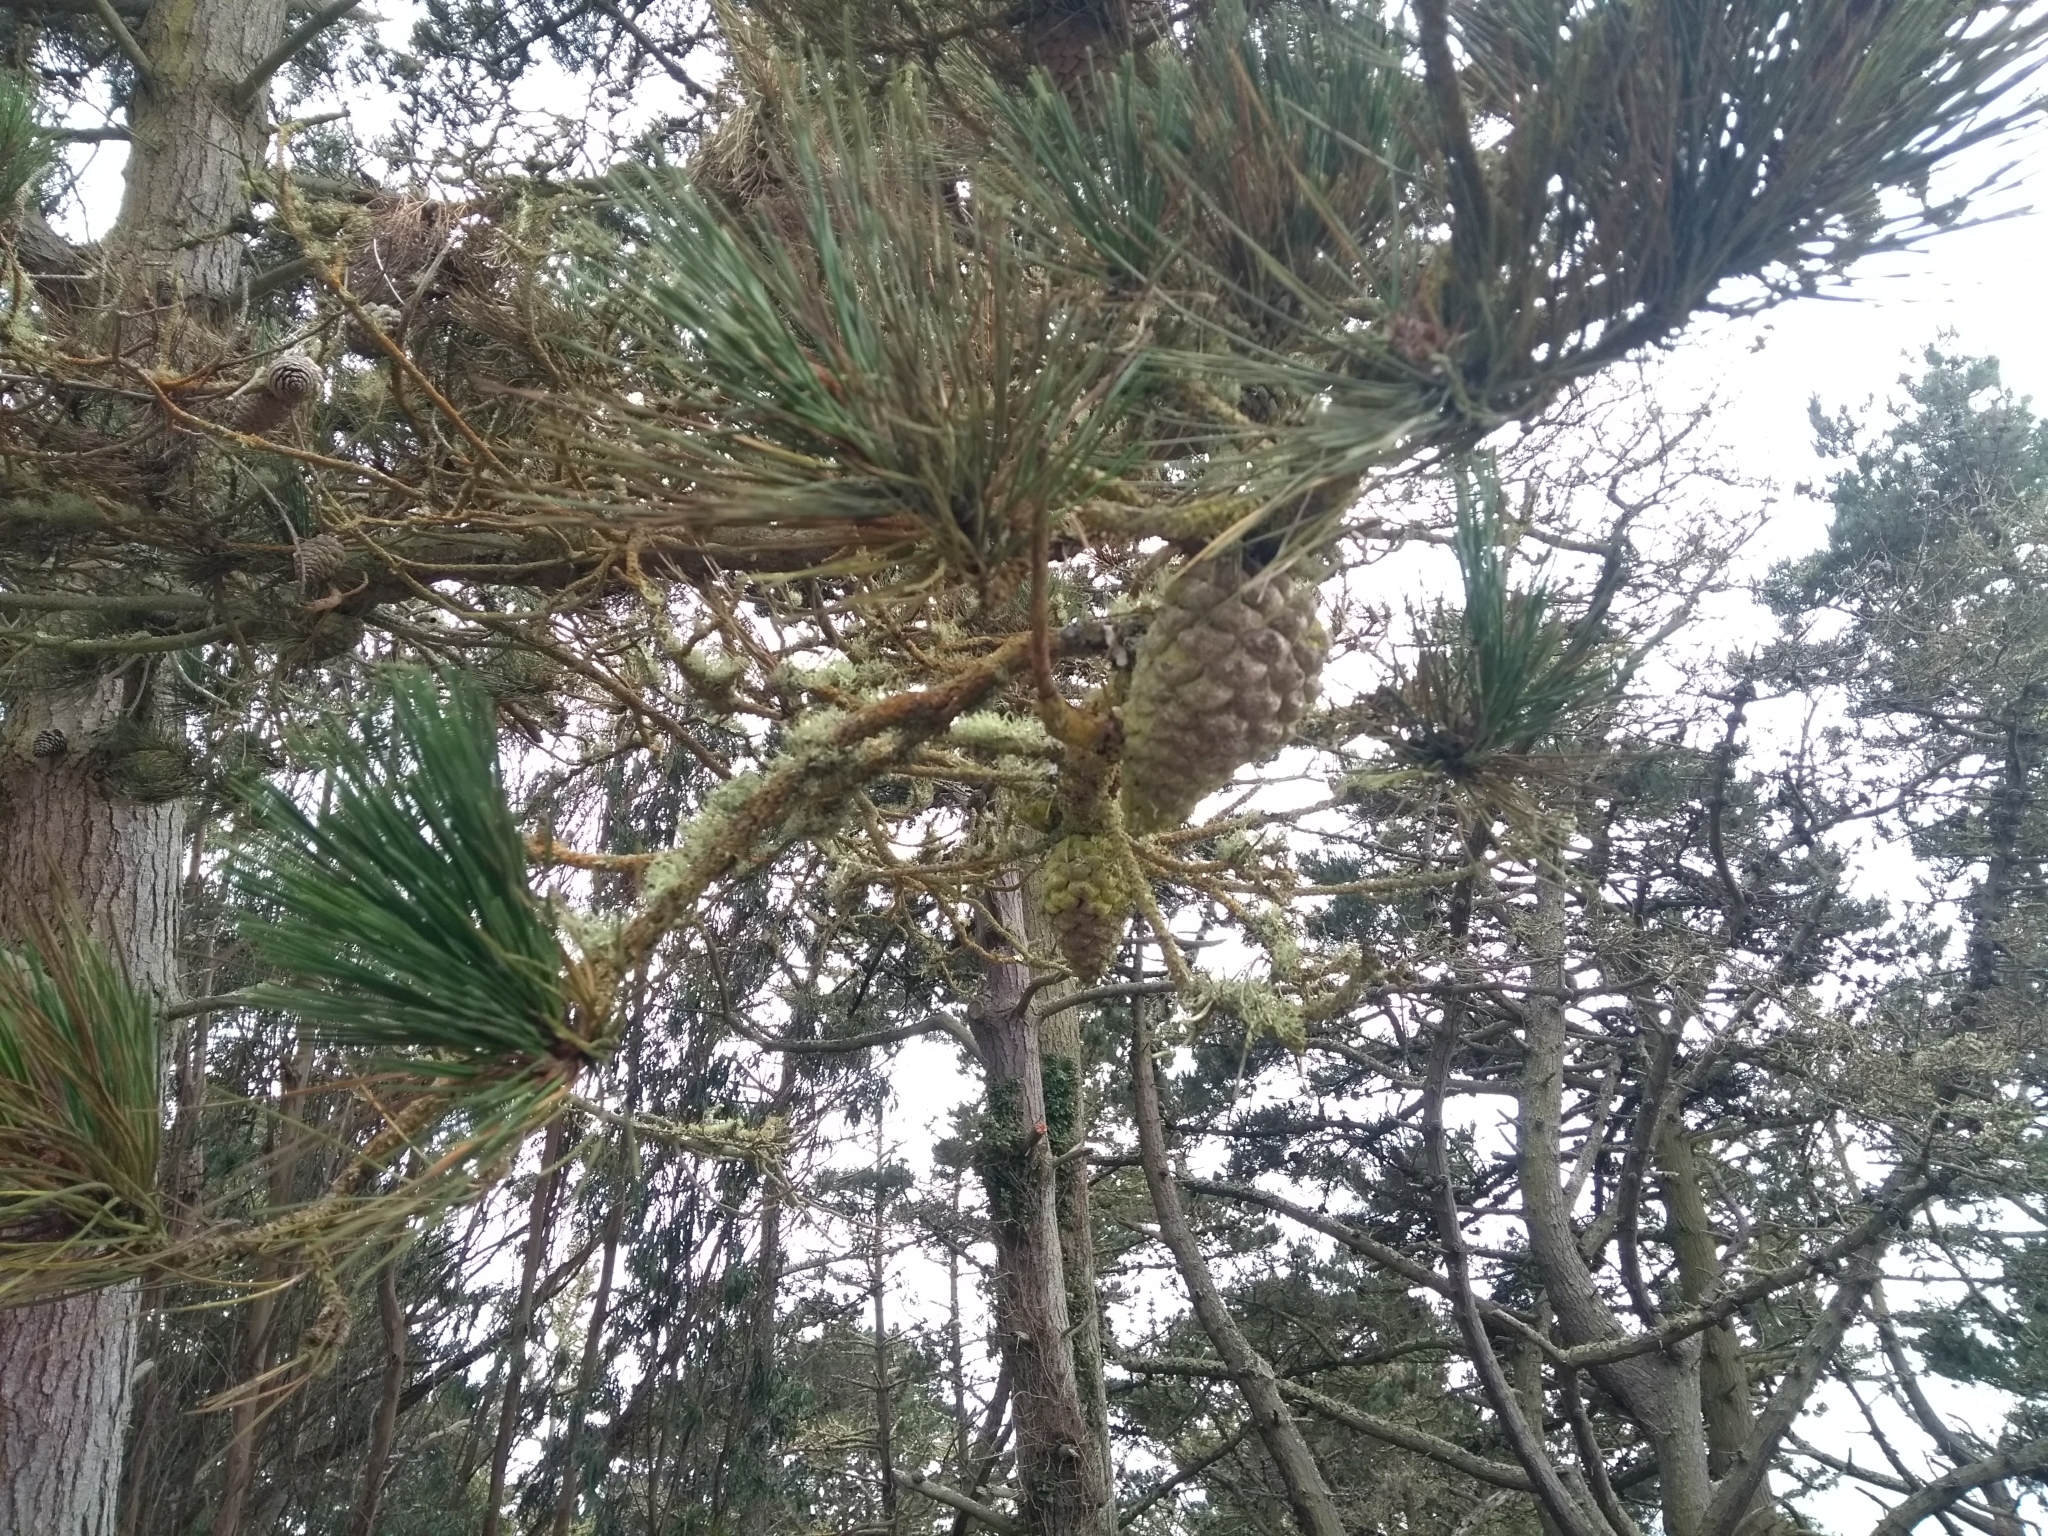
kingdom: Plantae
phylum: Tracheophyta
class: Pinopsida
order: Pinales
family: Pinaceae
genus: Pinus
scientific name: Pinus radiata
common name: Monterey pine
